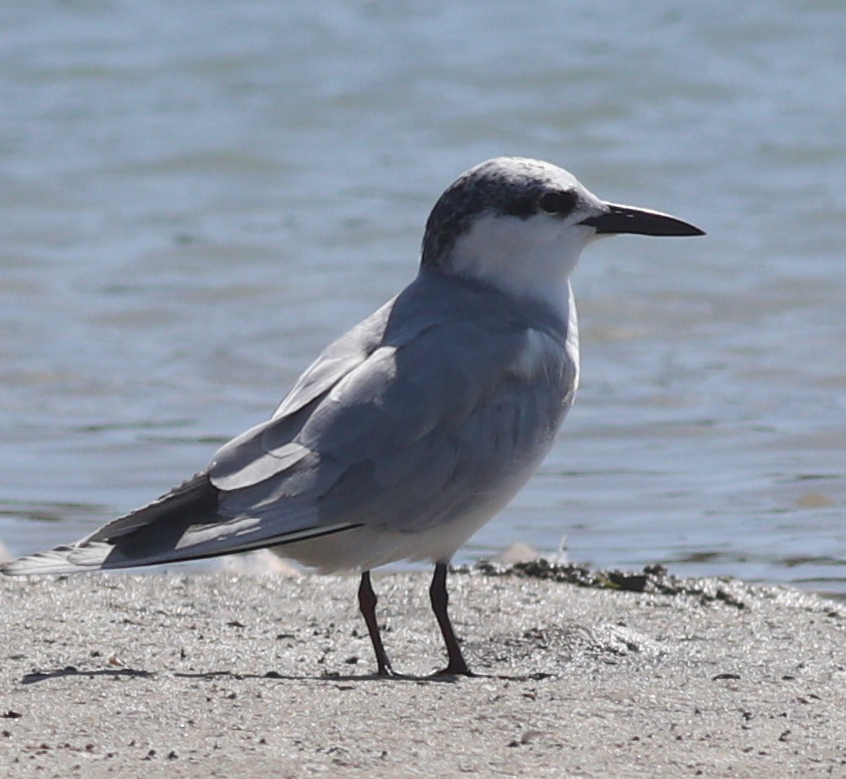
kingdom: Animalia
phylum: Chordata
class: Aves
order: Charadriiformes
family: Laridae
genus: Chlidonias
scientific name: Chlidonias hybrida
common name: Whiskered tern
